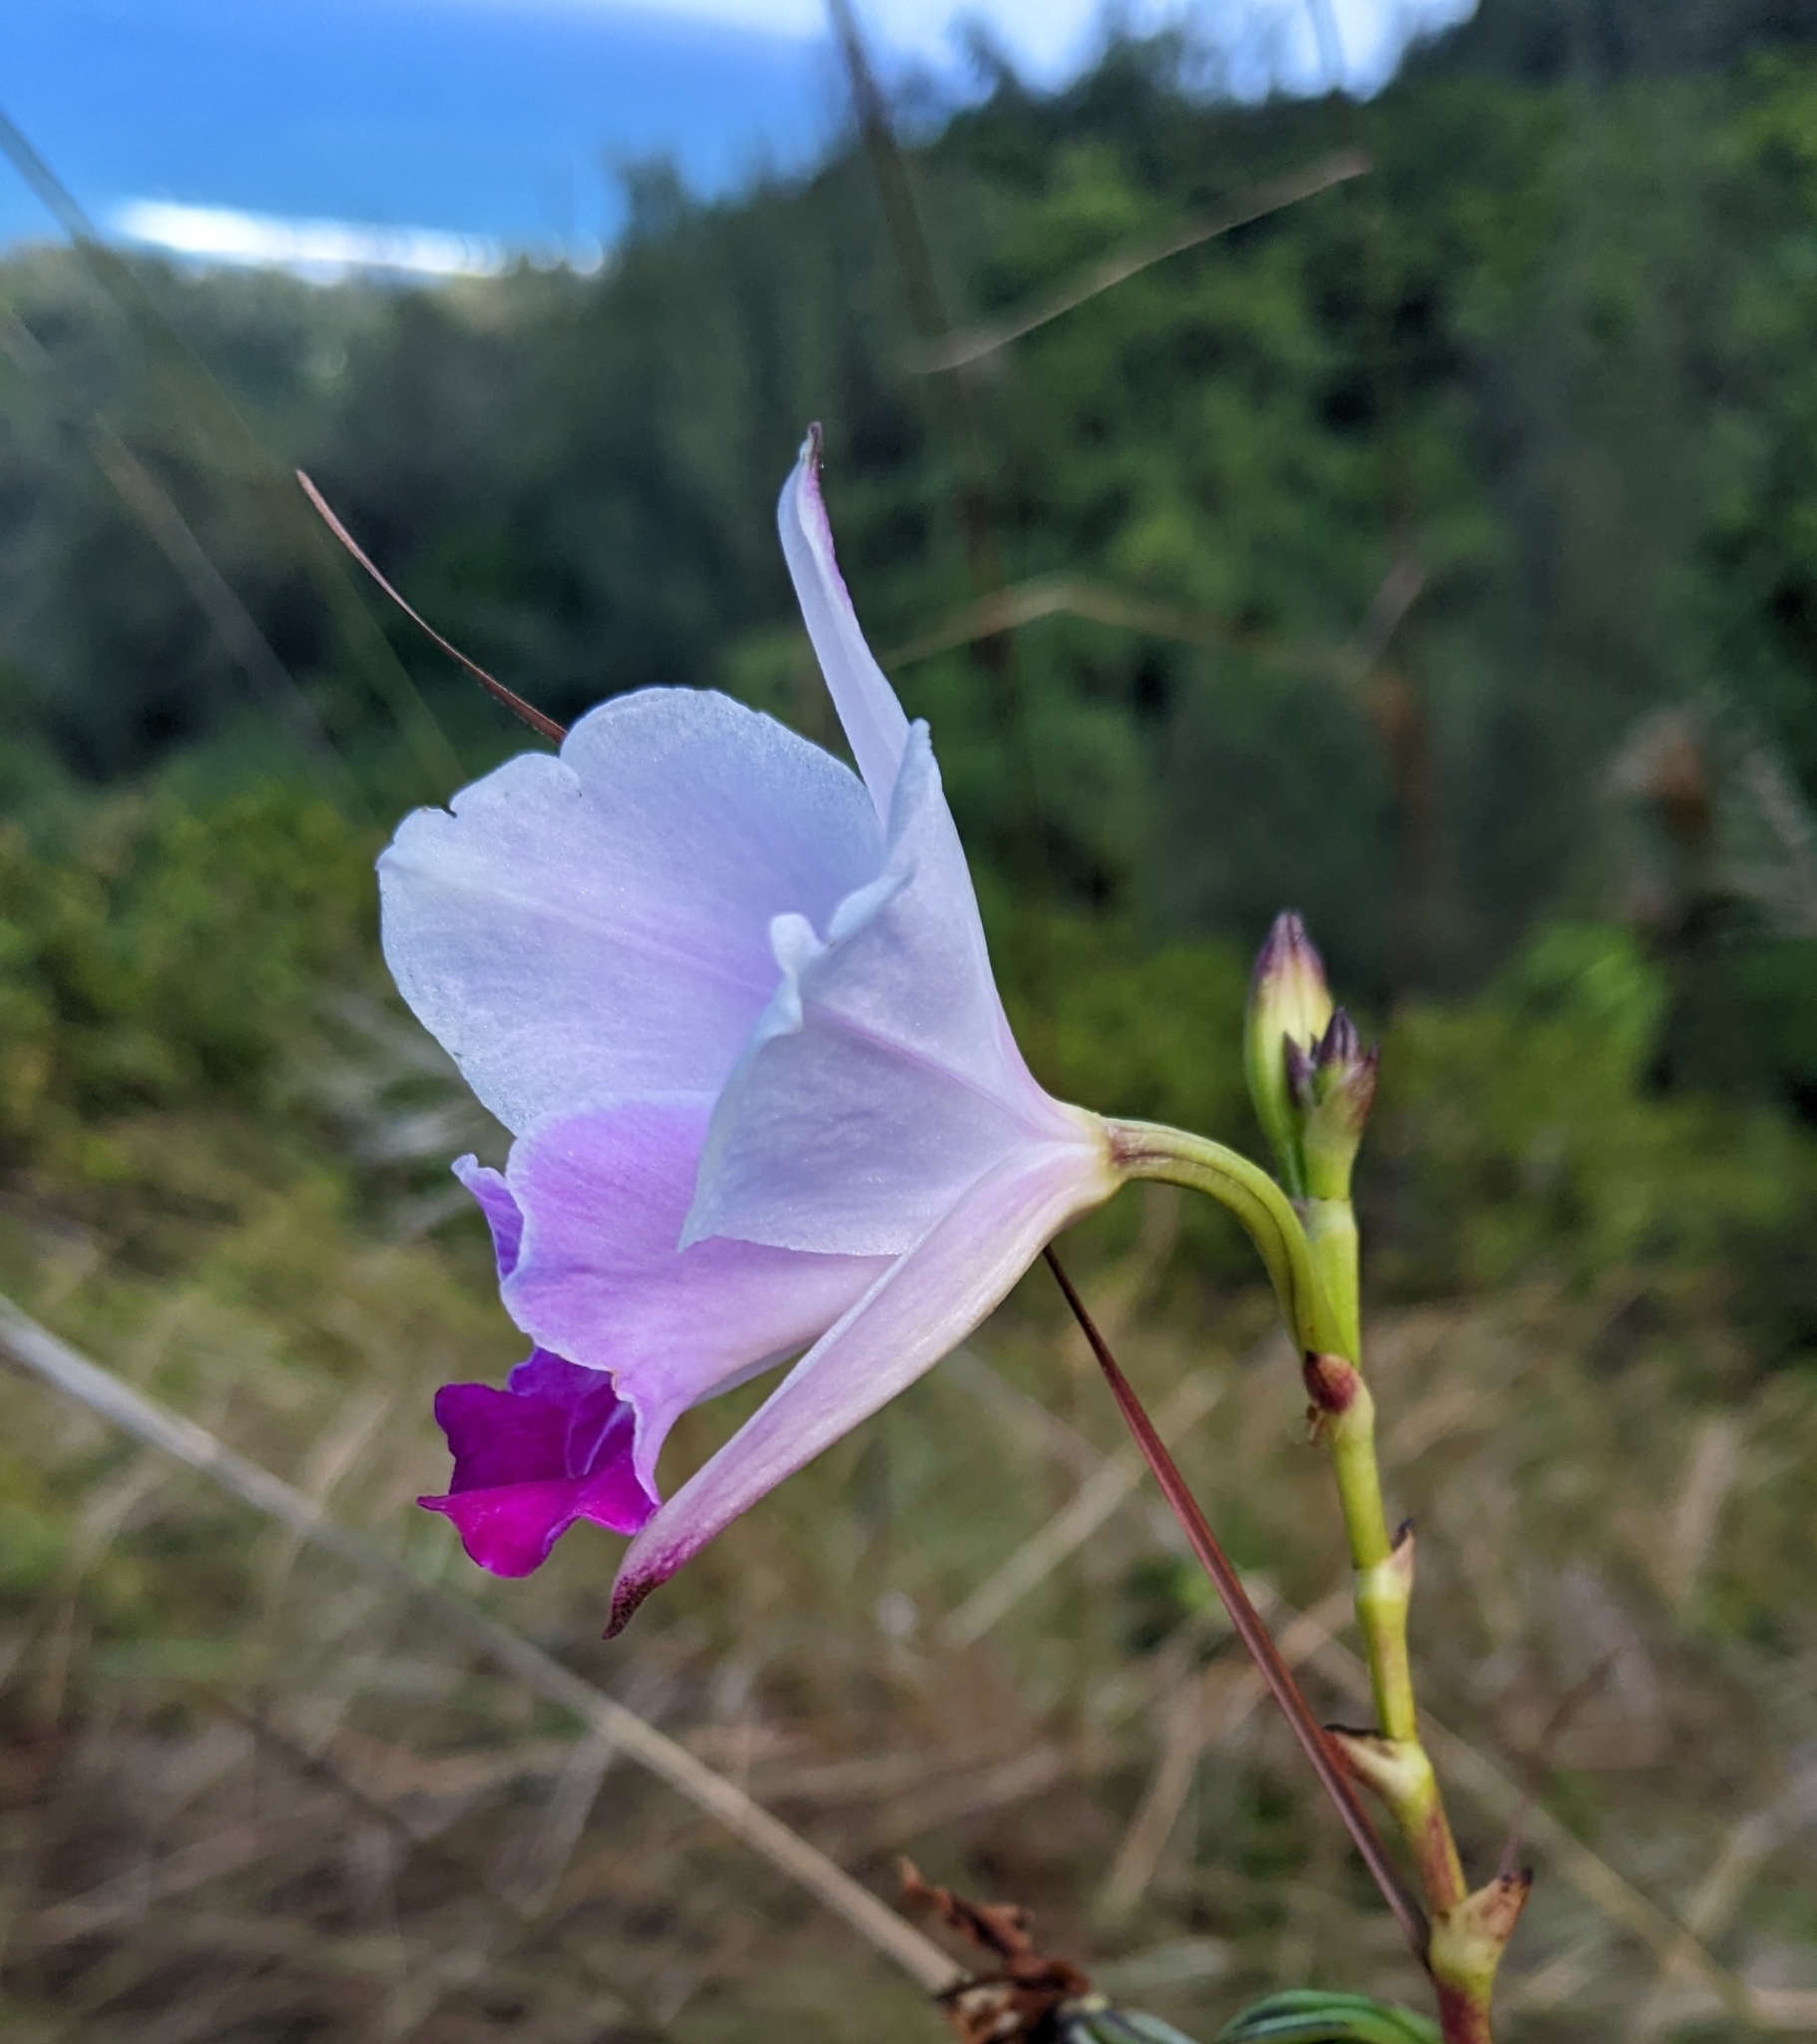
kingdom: Plantae
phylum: Tracheophyta
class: Liliopsida
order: Asparagales
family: Orchidaceae
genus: Arundina
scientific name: Arundina graminifolia
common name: Bamboo orchid
